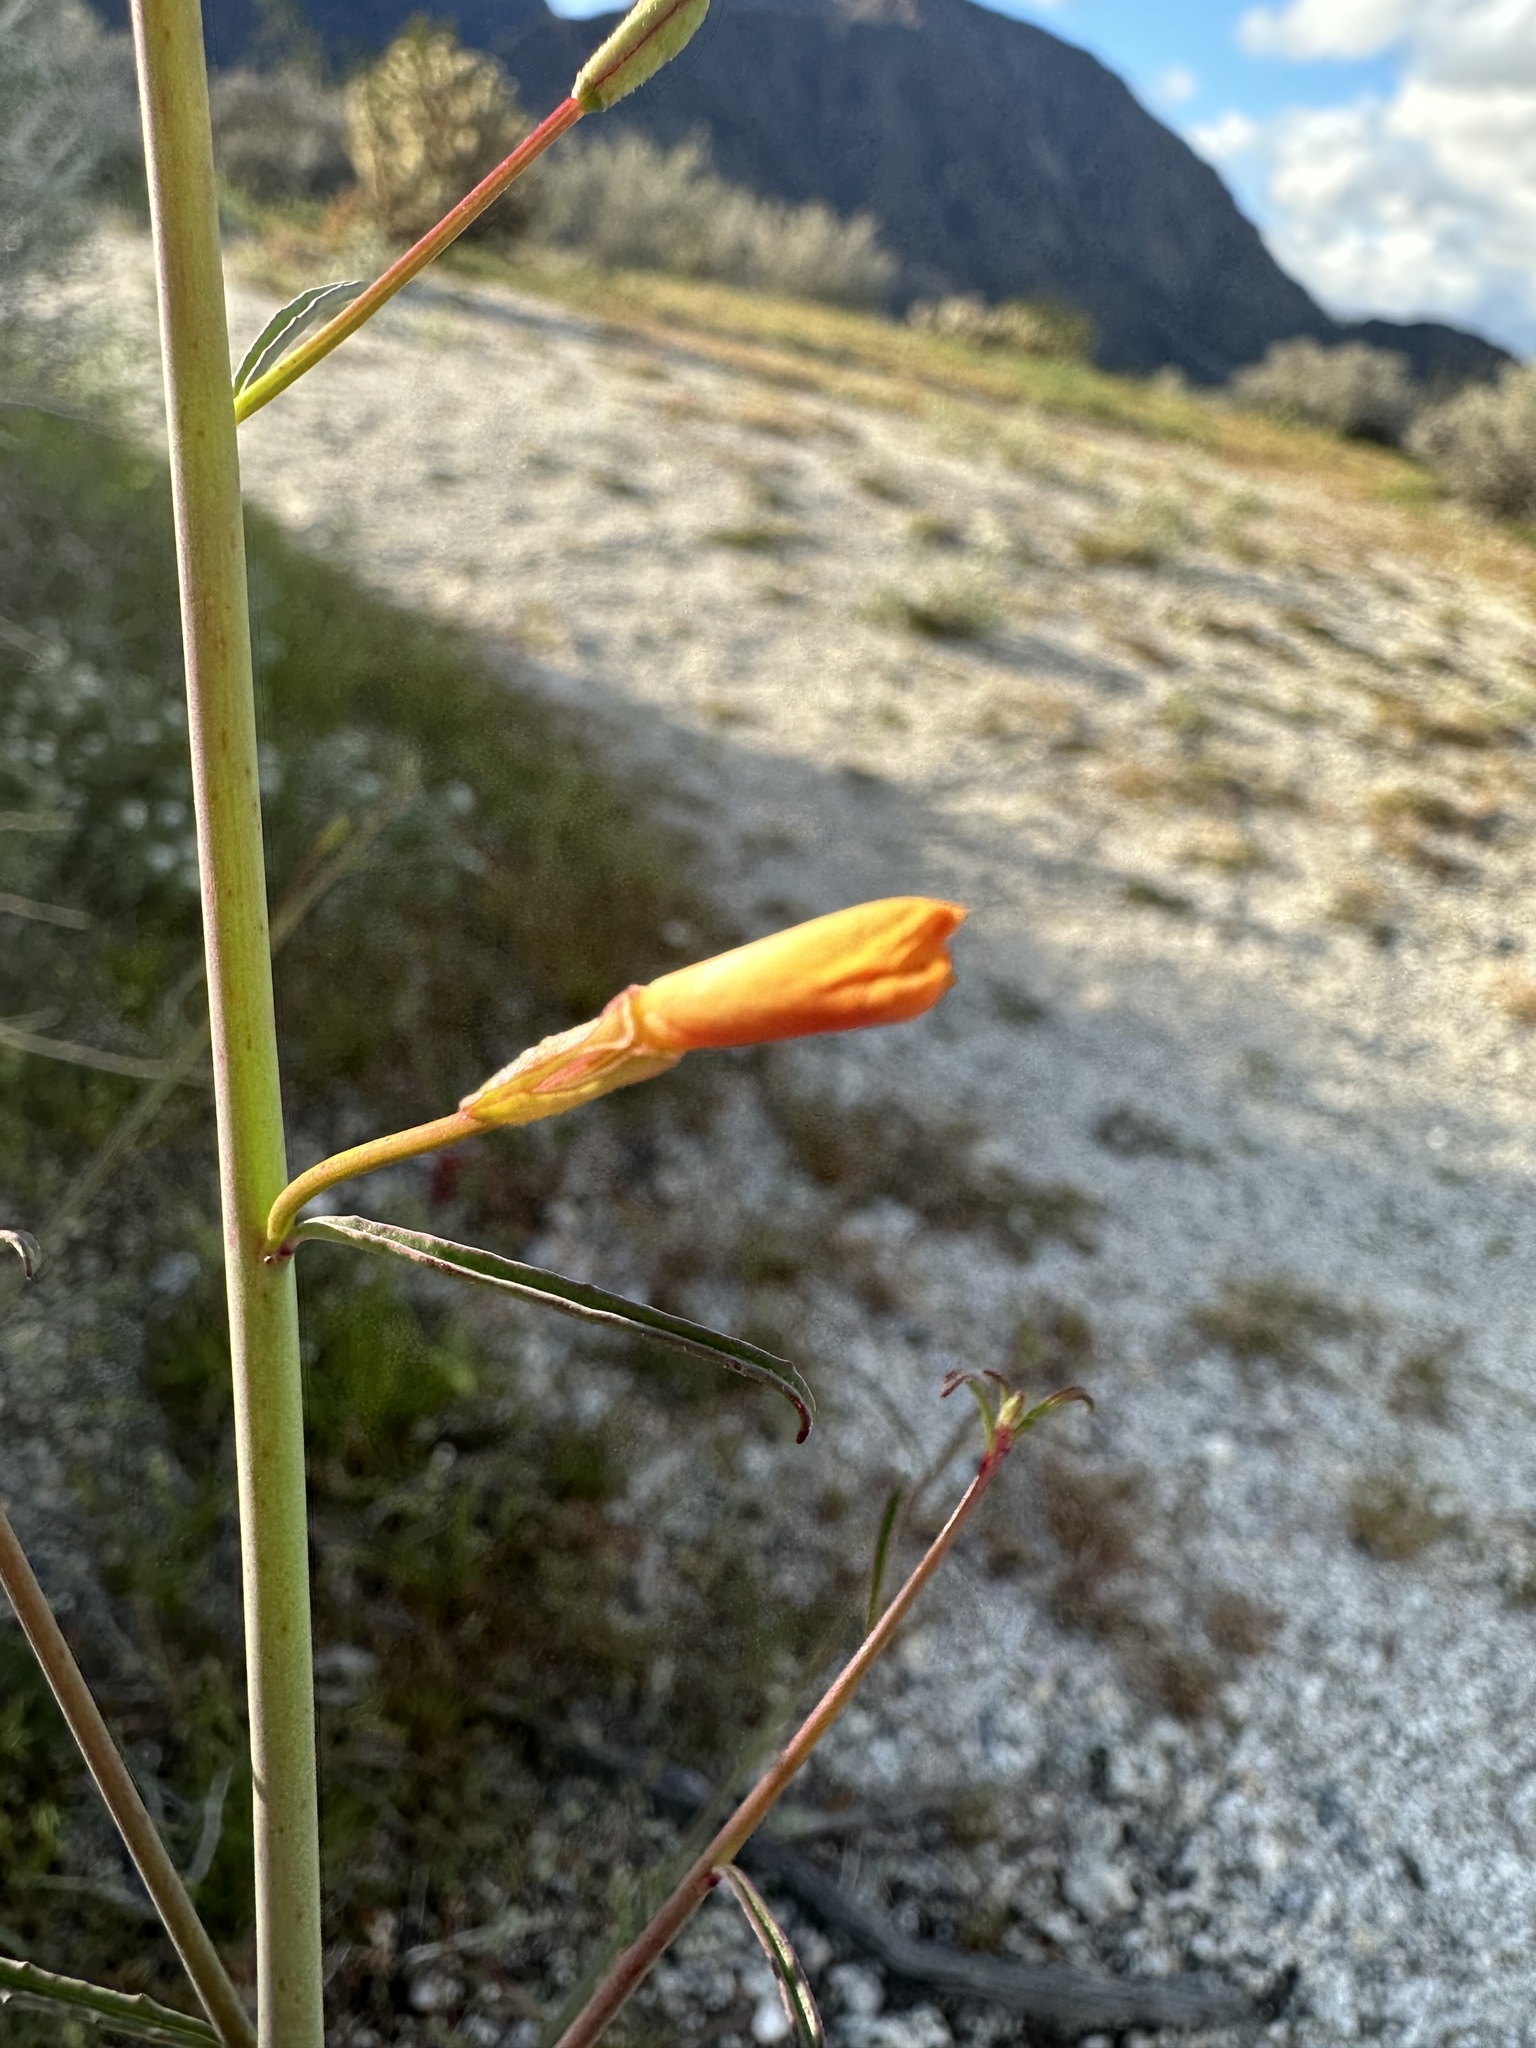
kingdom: Plantae
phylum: Tracheophyta
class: Magnoliopsida
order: Myrtales
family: Onagraceae
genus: Eulobus
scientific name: Eulobus californicus
